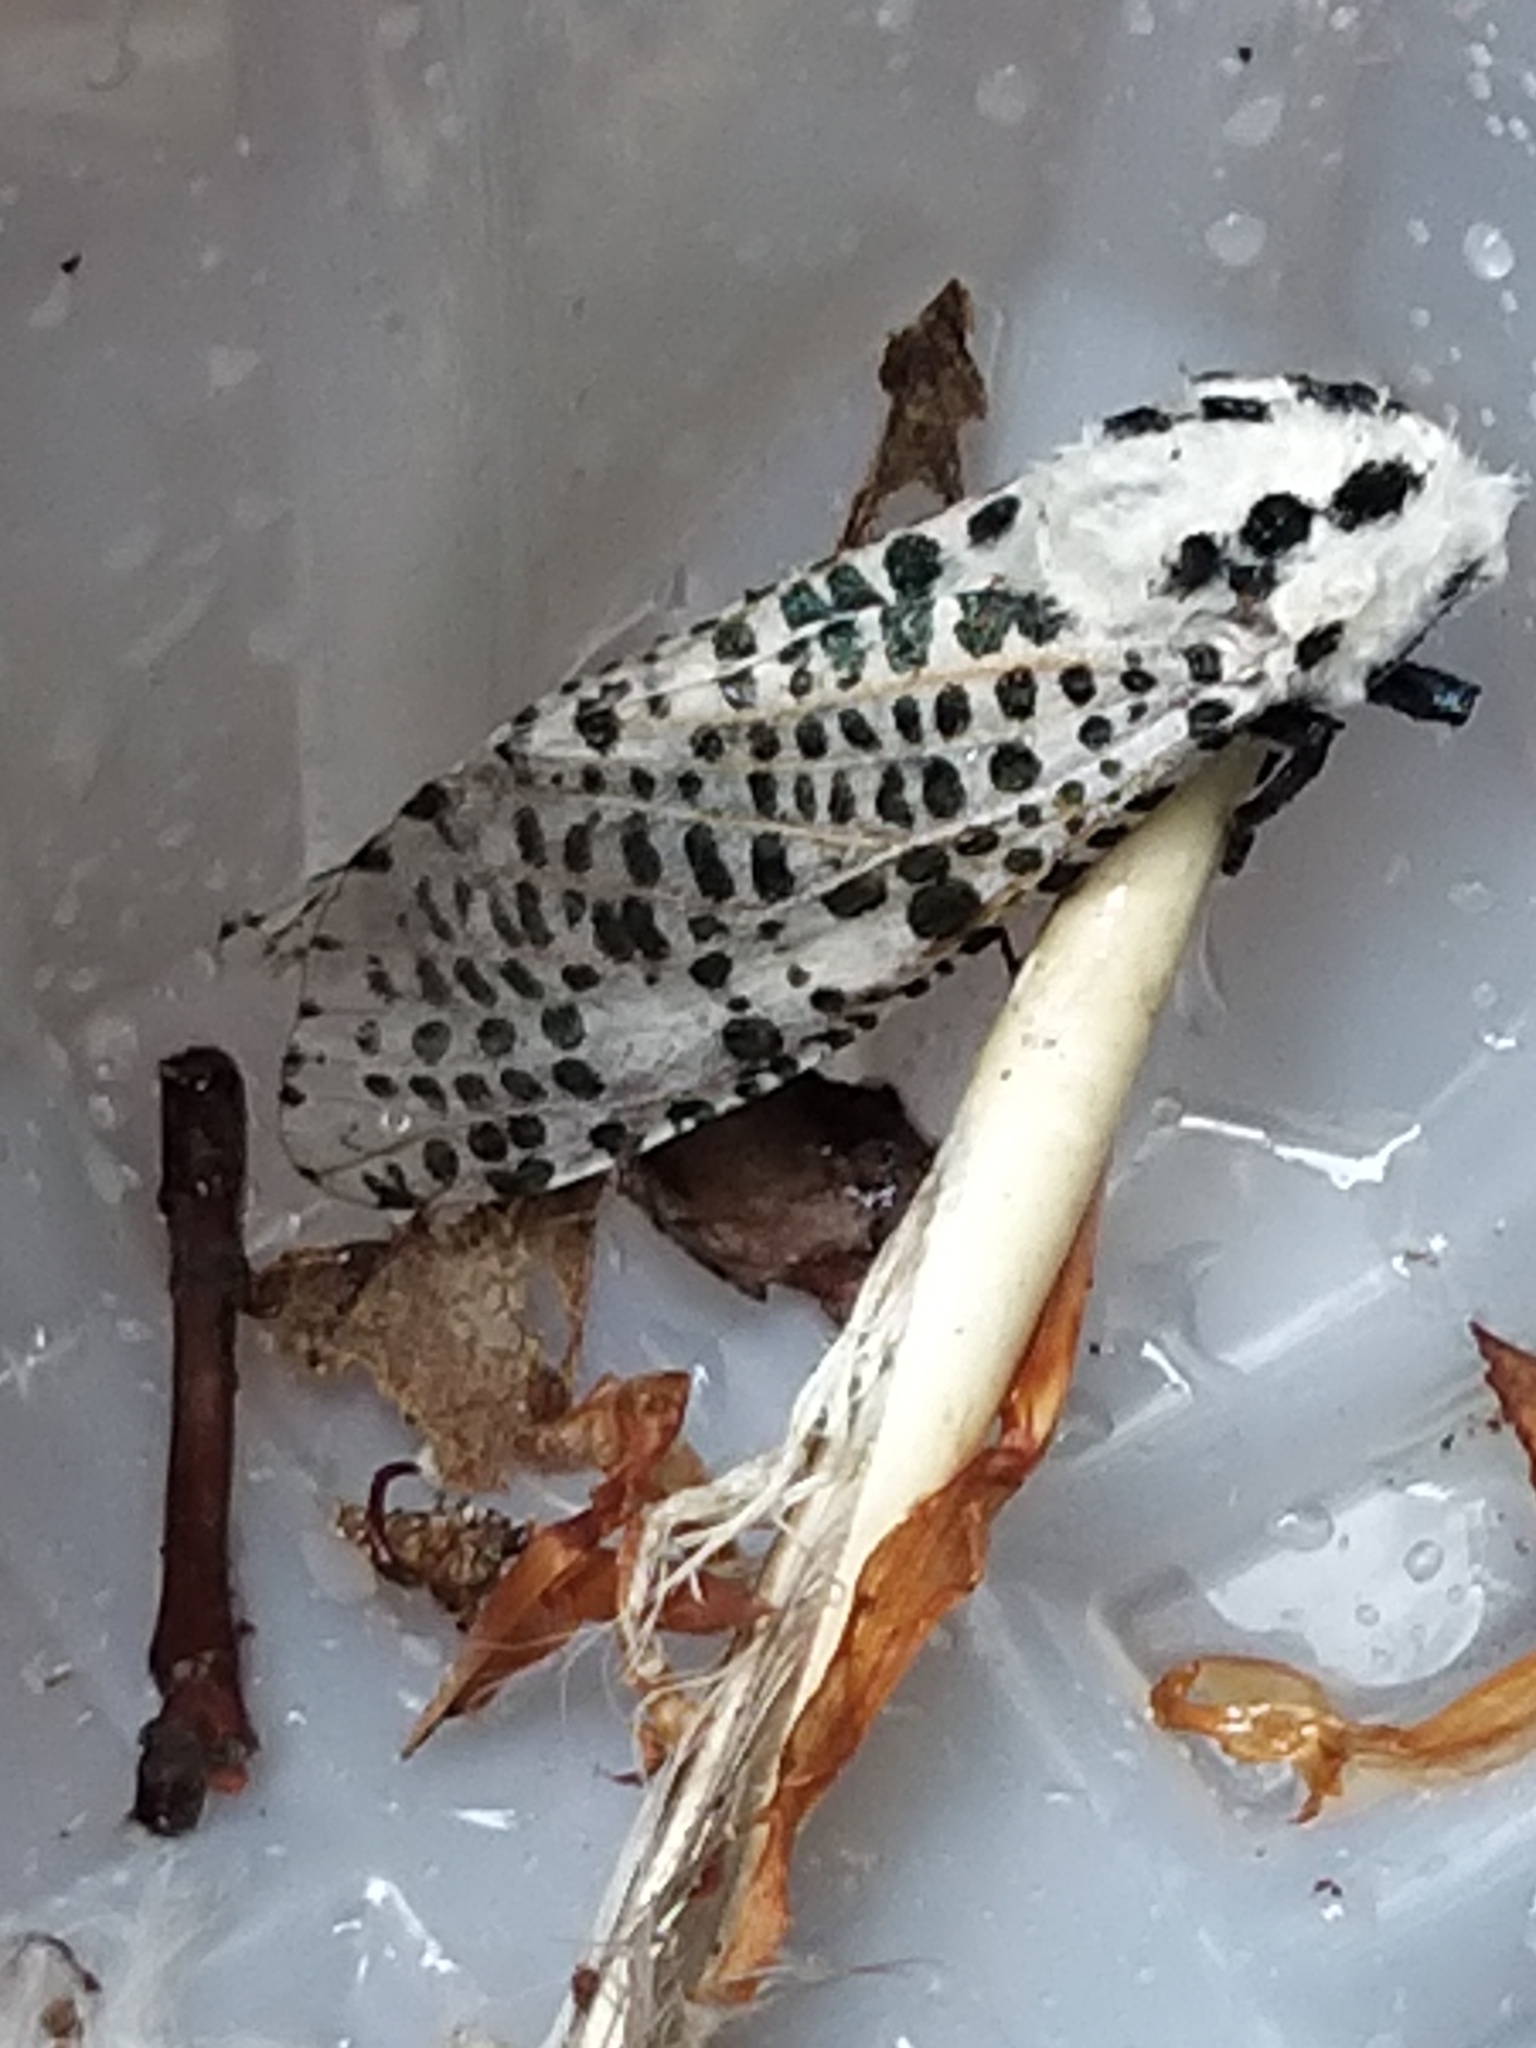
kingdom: Animalia
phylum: Arthropoda
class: Insecta
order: Lepidoptera
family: Cossidae
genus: Zeuzera
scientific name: Zeuzera pyrina
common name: Leopard moth
